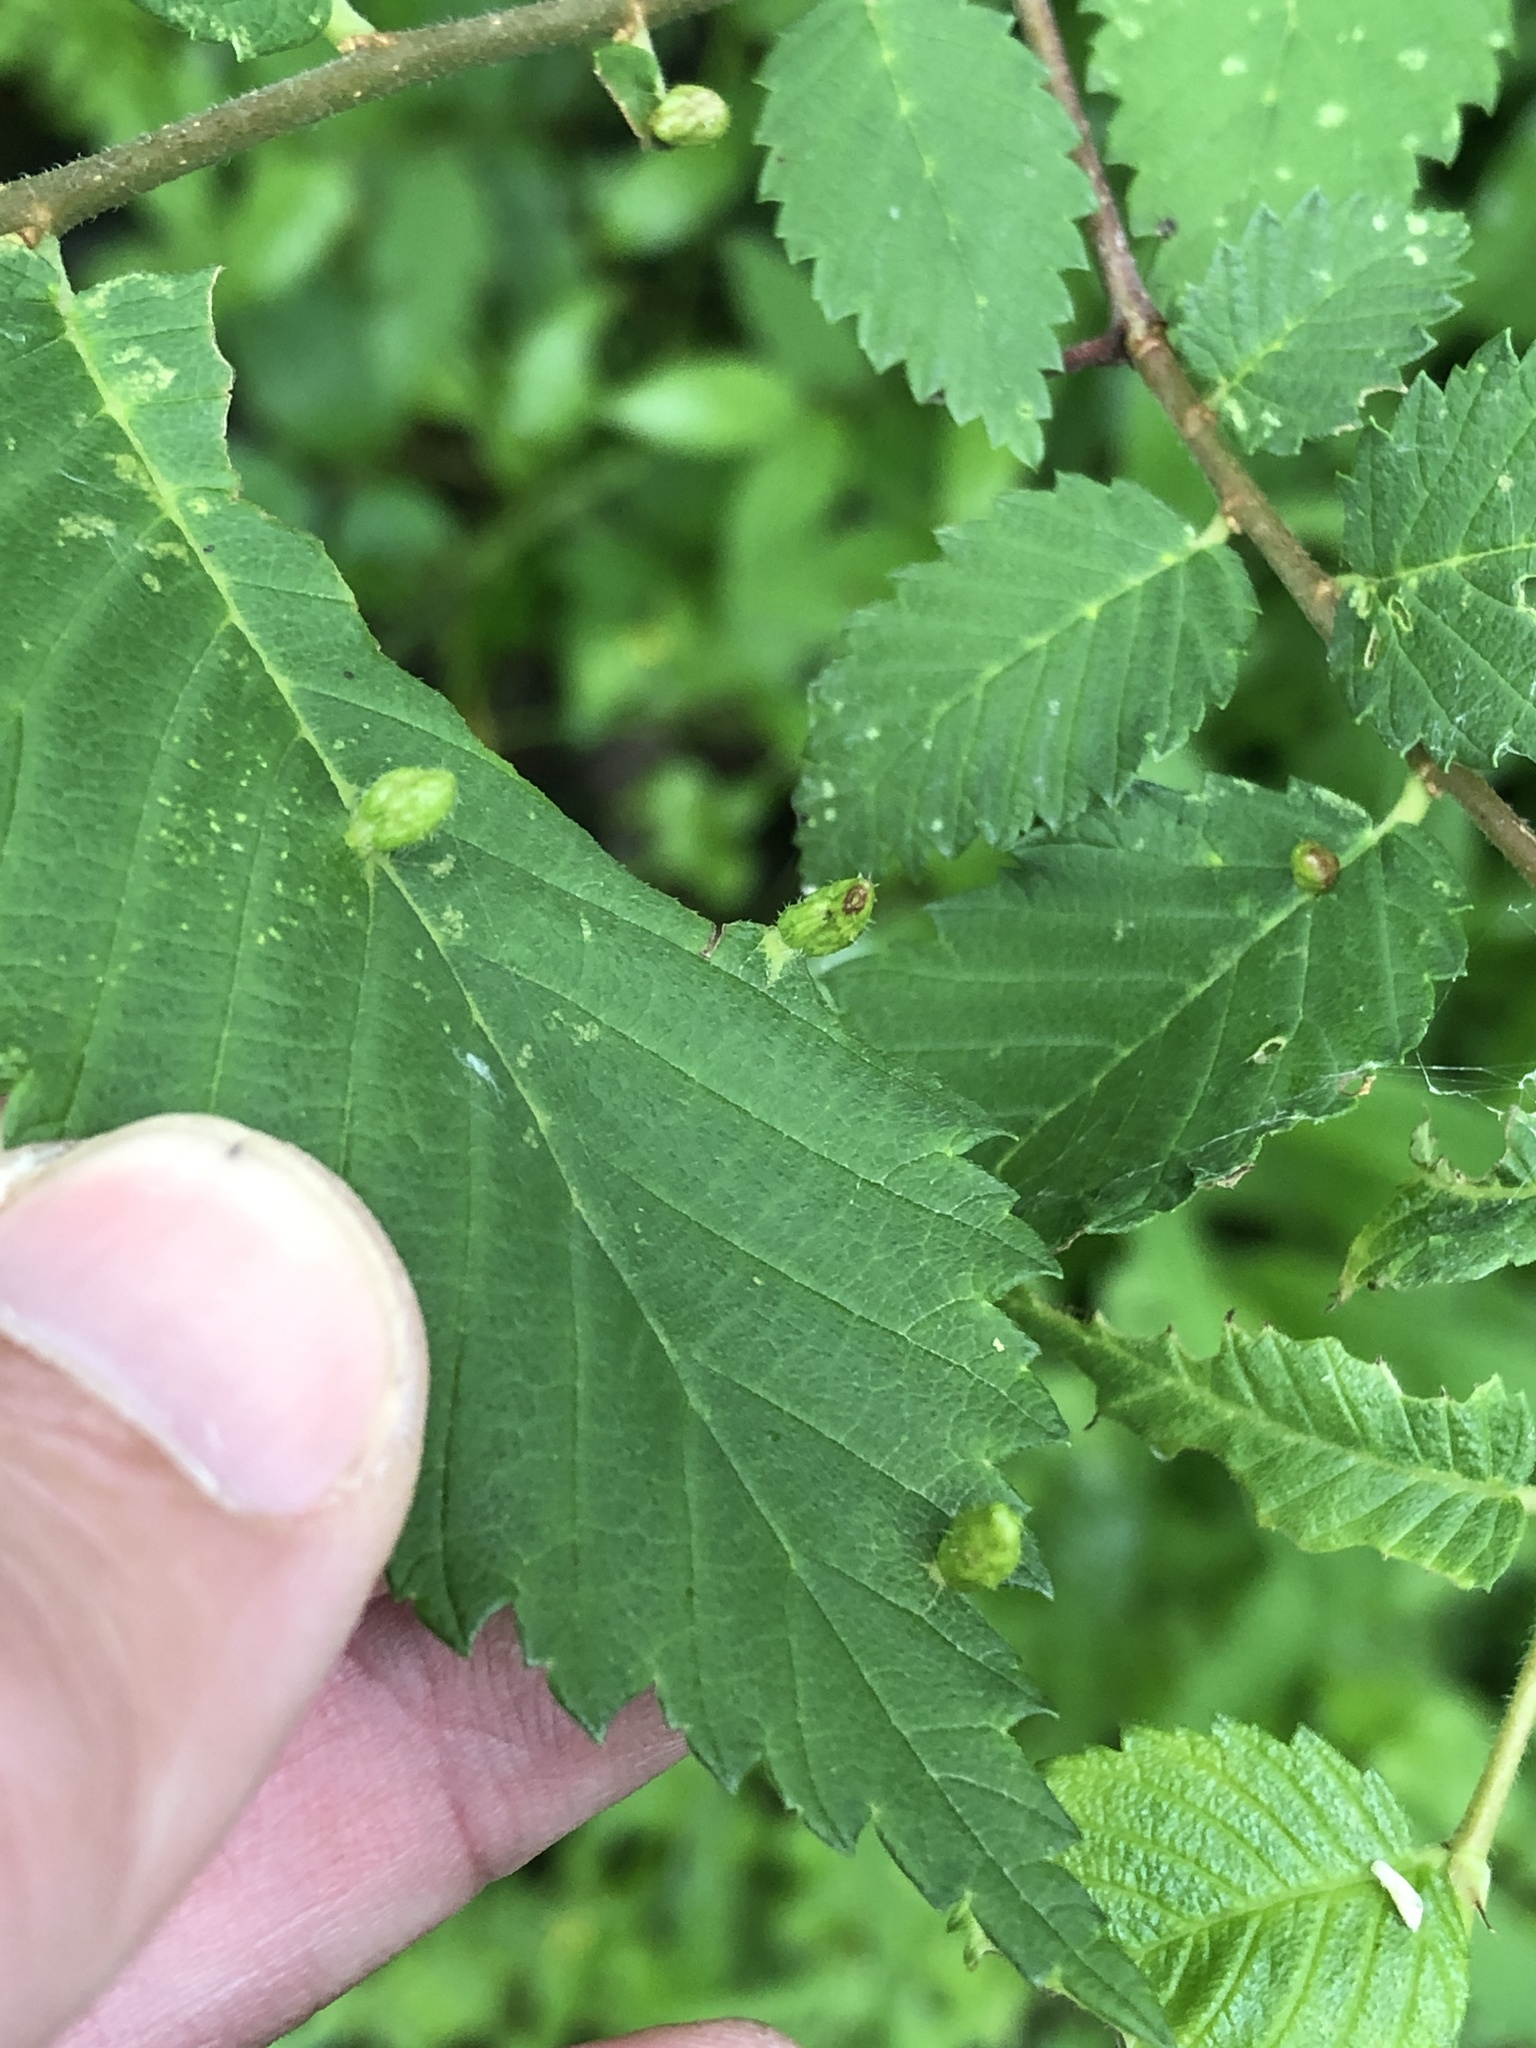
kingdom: Animalia
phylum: Arthropoda
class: Arachnida
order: Trombidiformes
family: Eriophyidae
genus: Aceria
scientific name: Aceria
